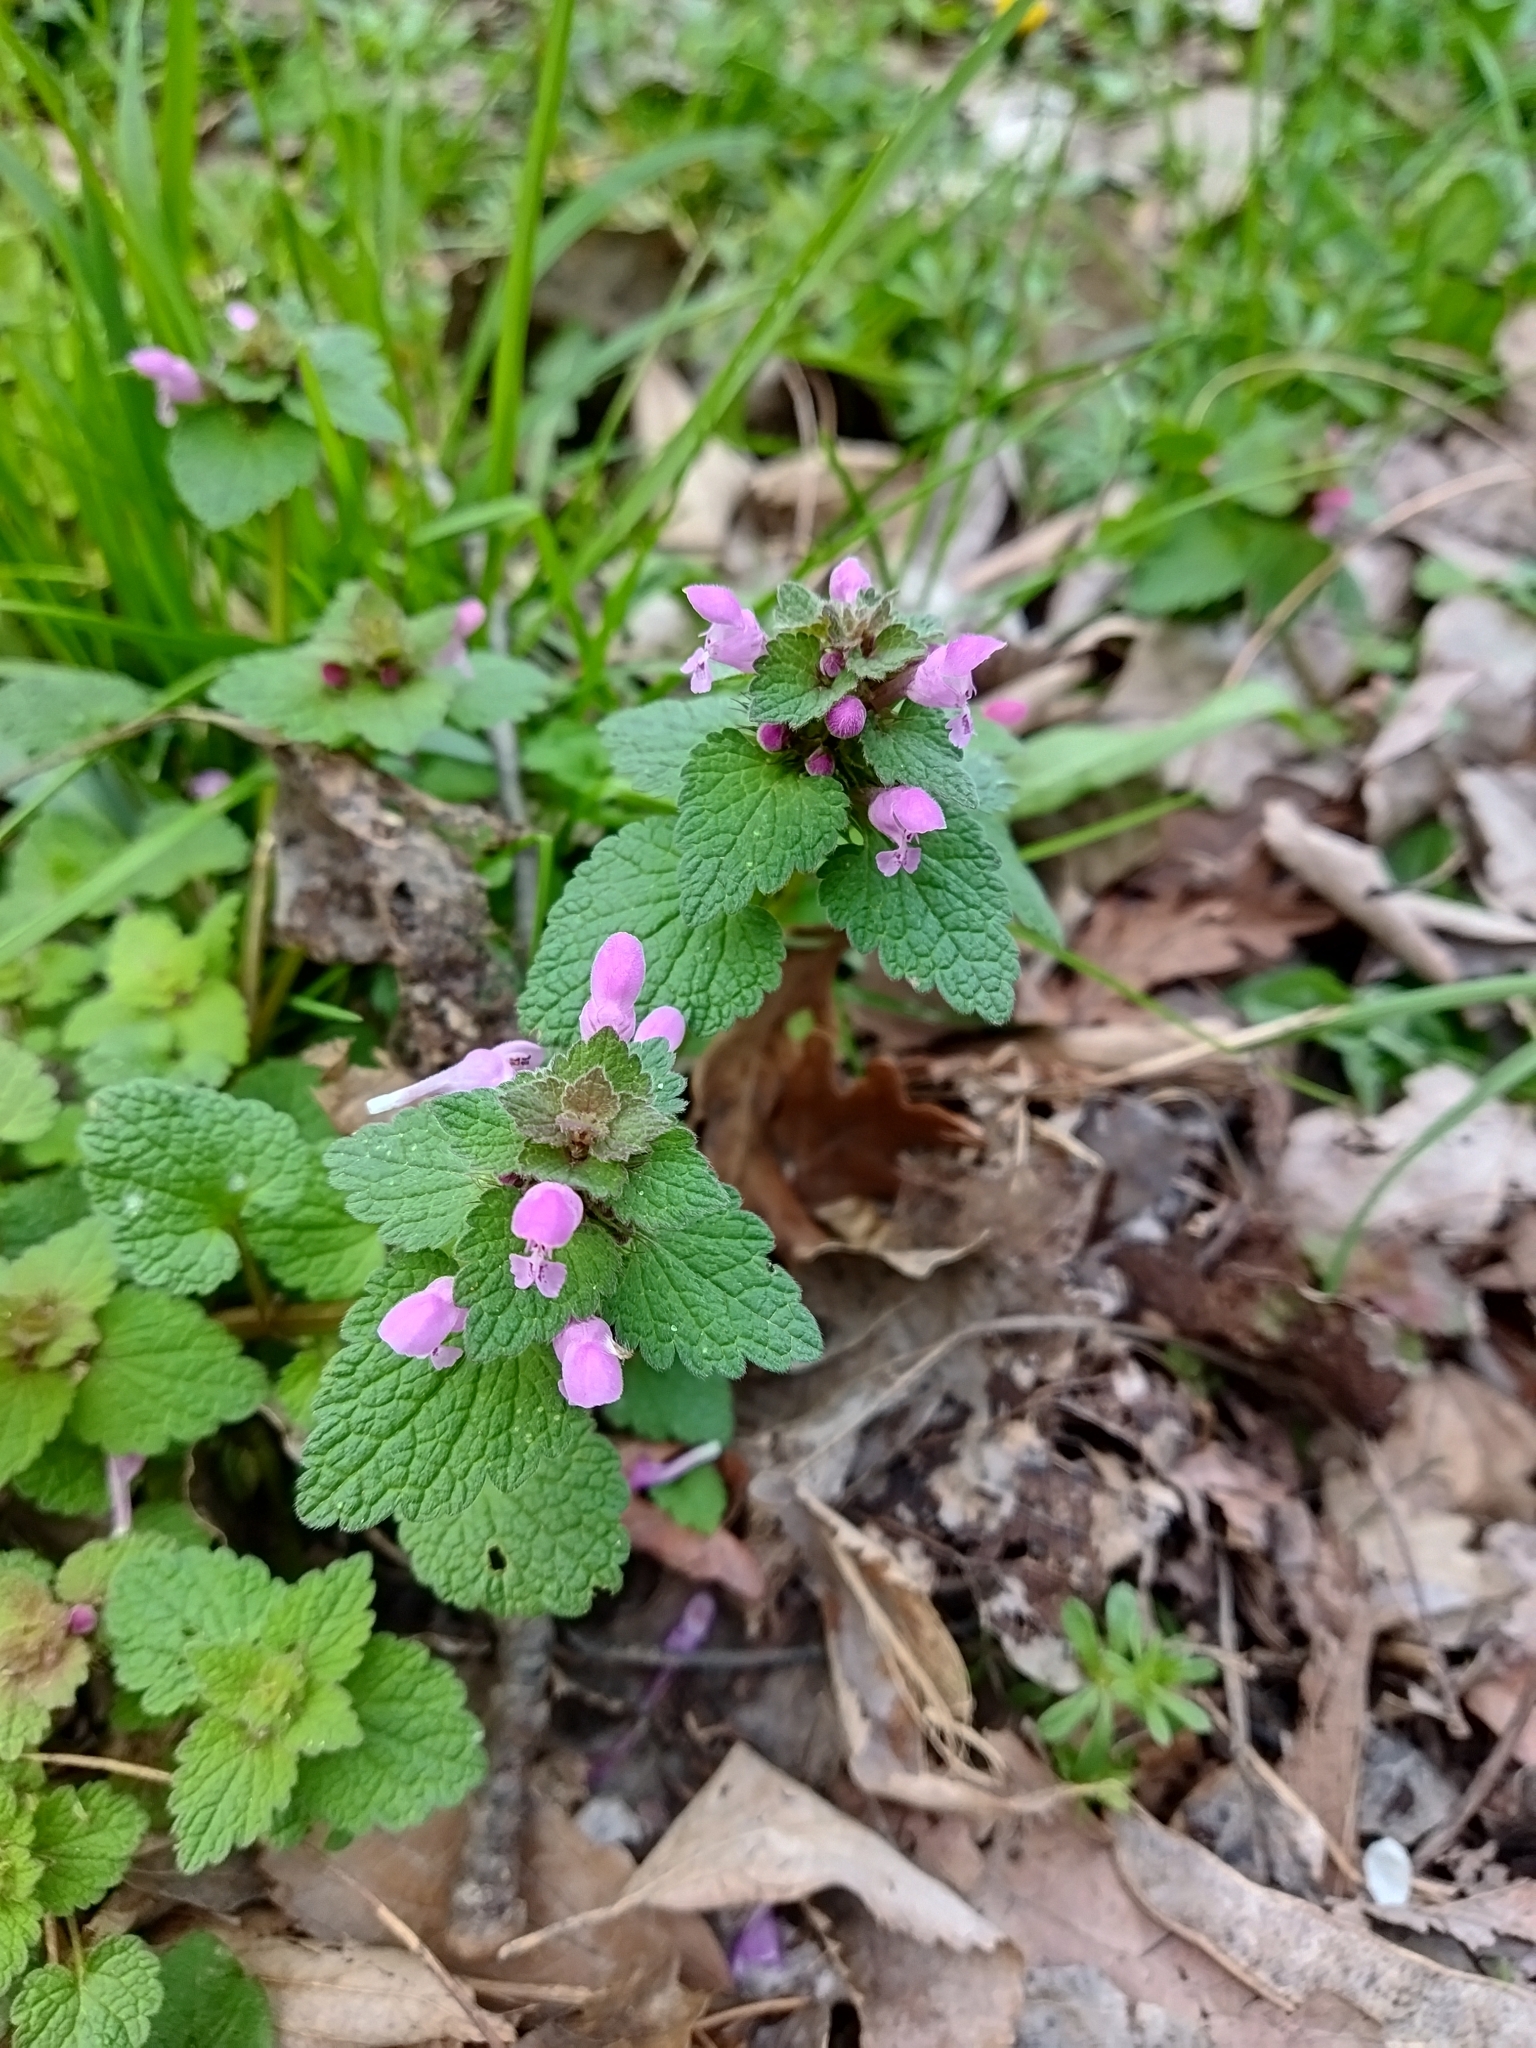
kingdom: Plantae
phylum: Tracheophyta
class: Magnoliopsida
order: Lamiales
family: Lamiaceae
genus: Lamium
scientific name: Lamium purpureum
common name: Red dead-nettle
